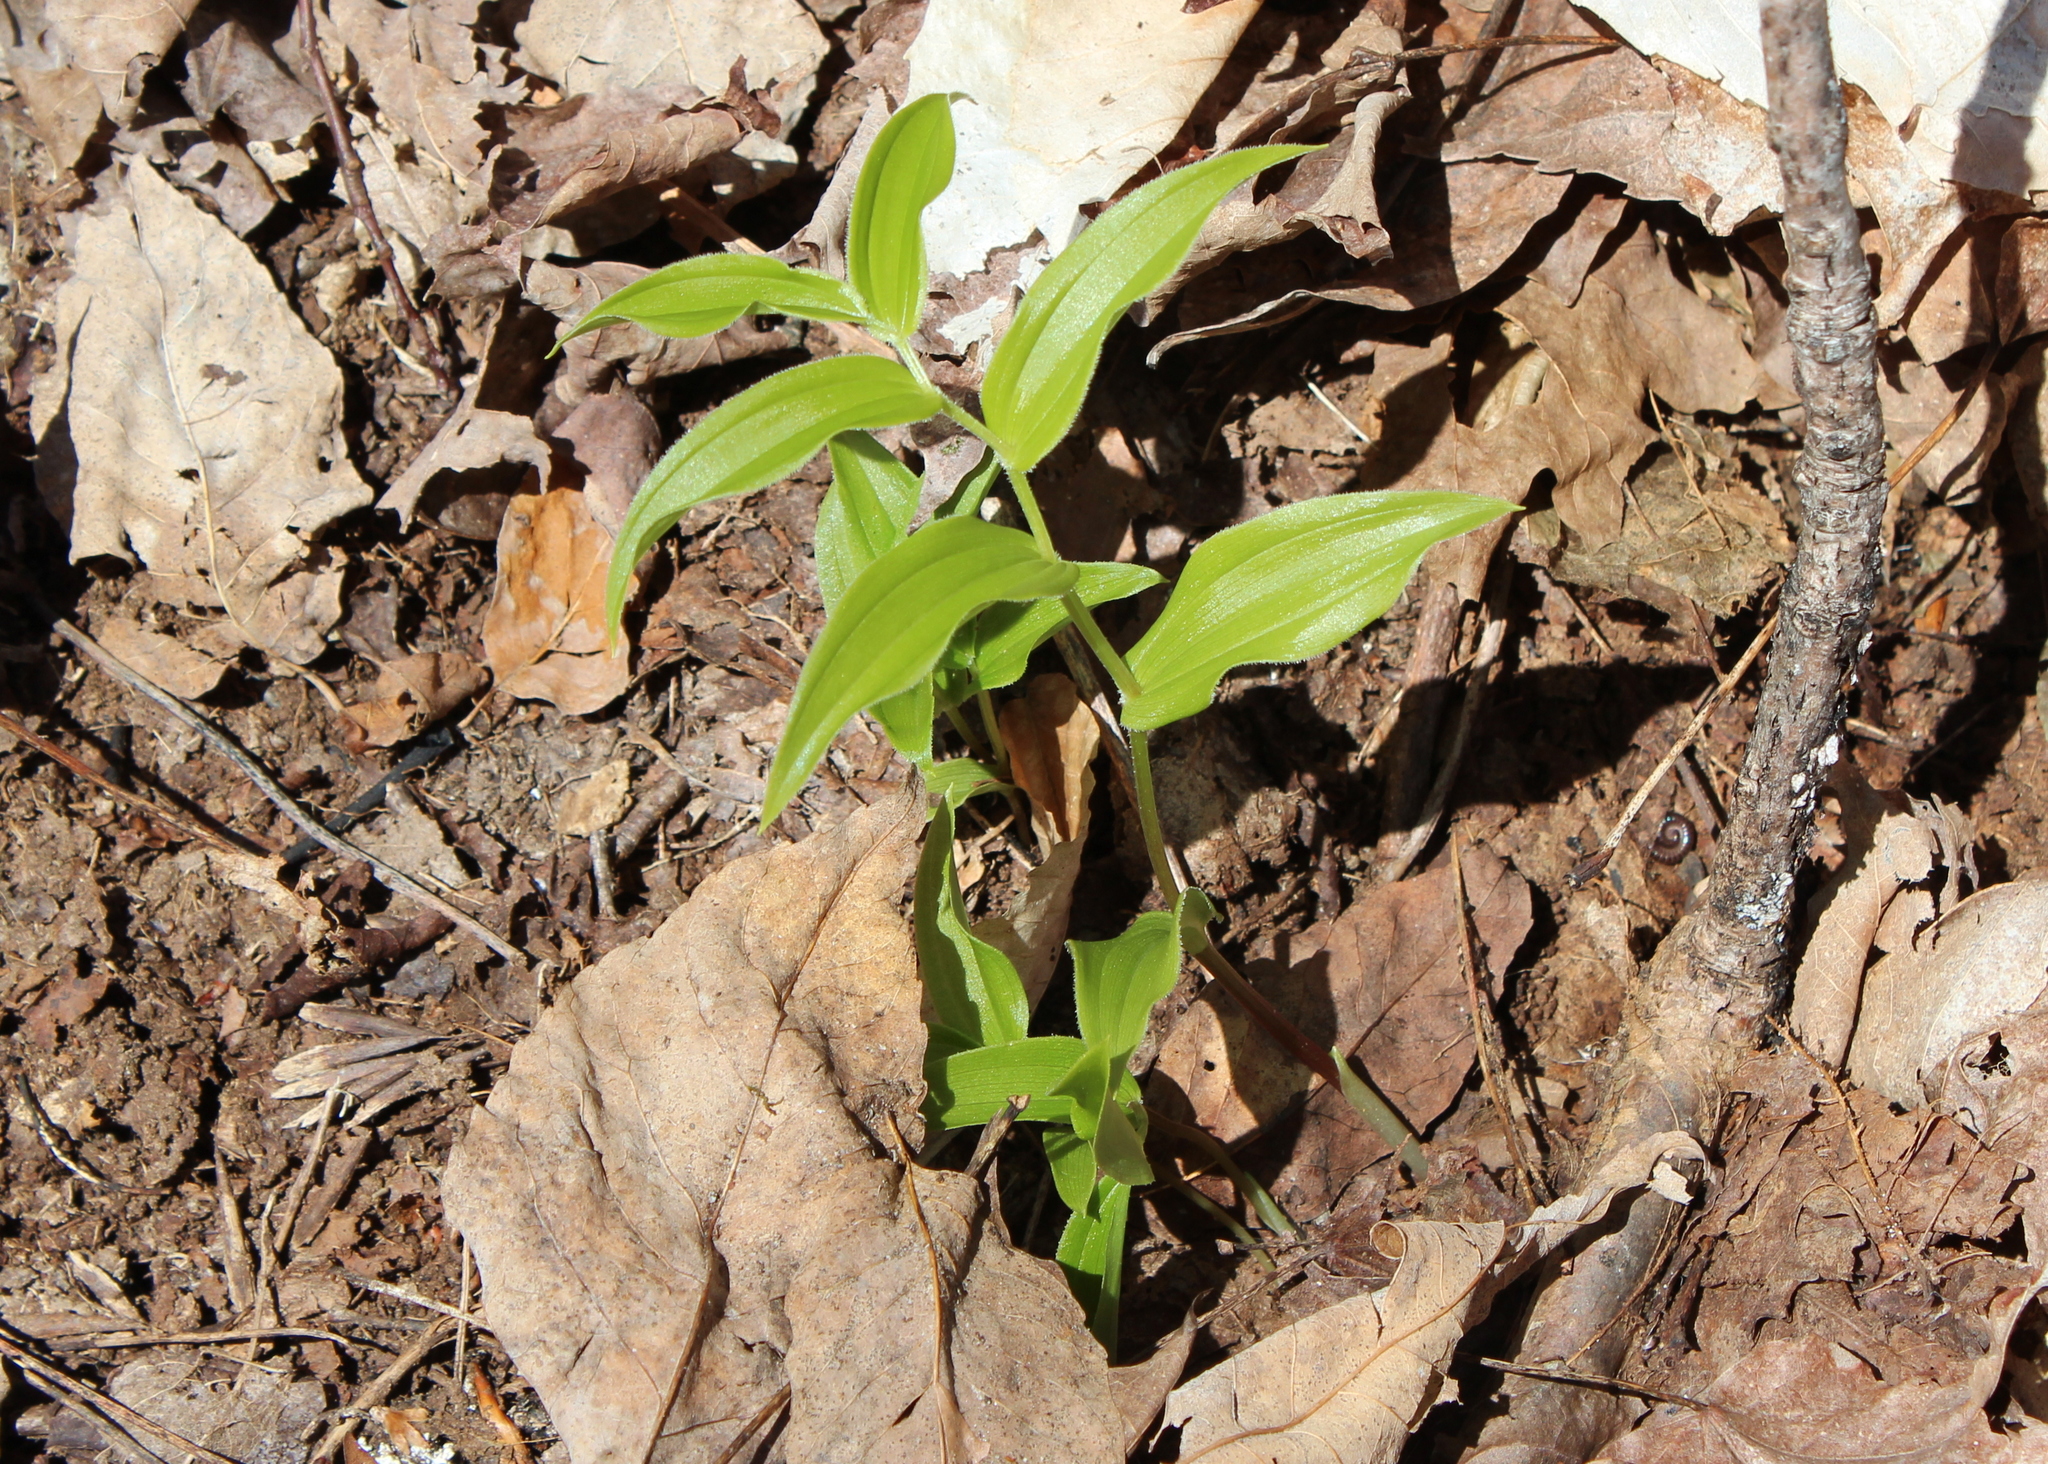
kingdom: Plantae
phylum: Tracheophyta
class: Liliopsida
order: Liliales
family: Liliaceae
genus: Streptopus
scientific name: Streptopus lanceolatus
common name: Rose mandarin
